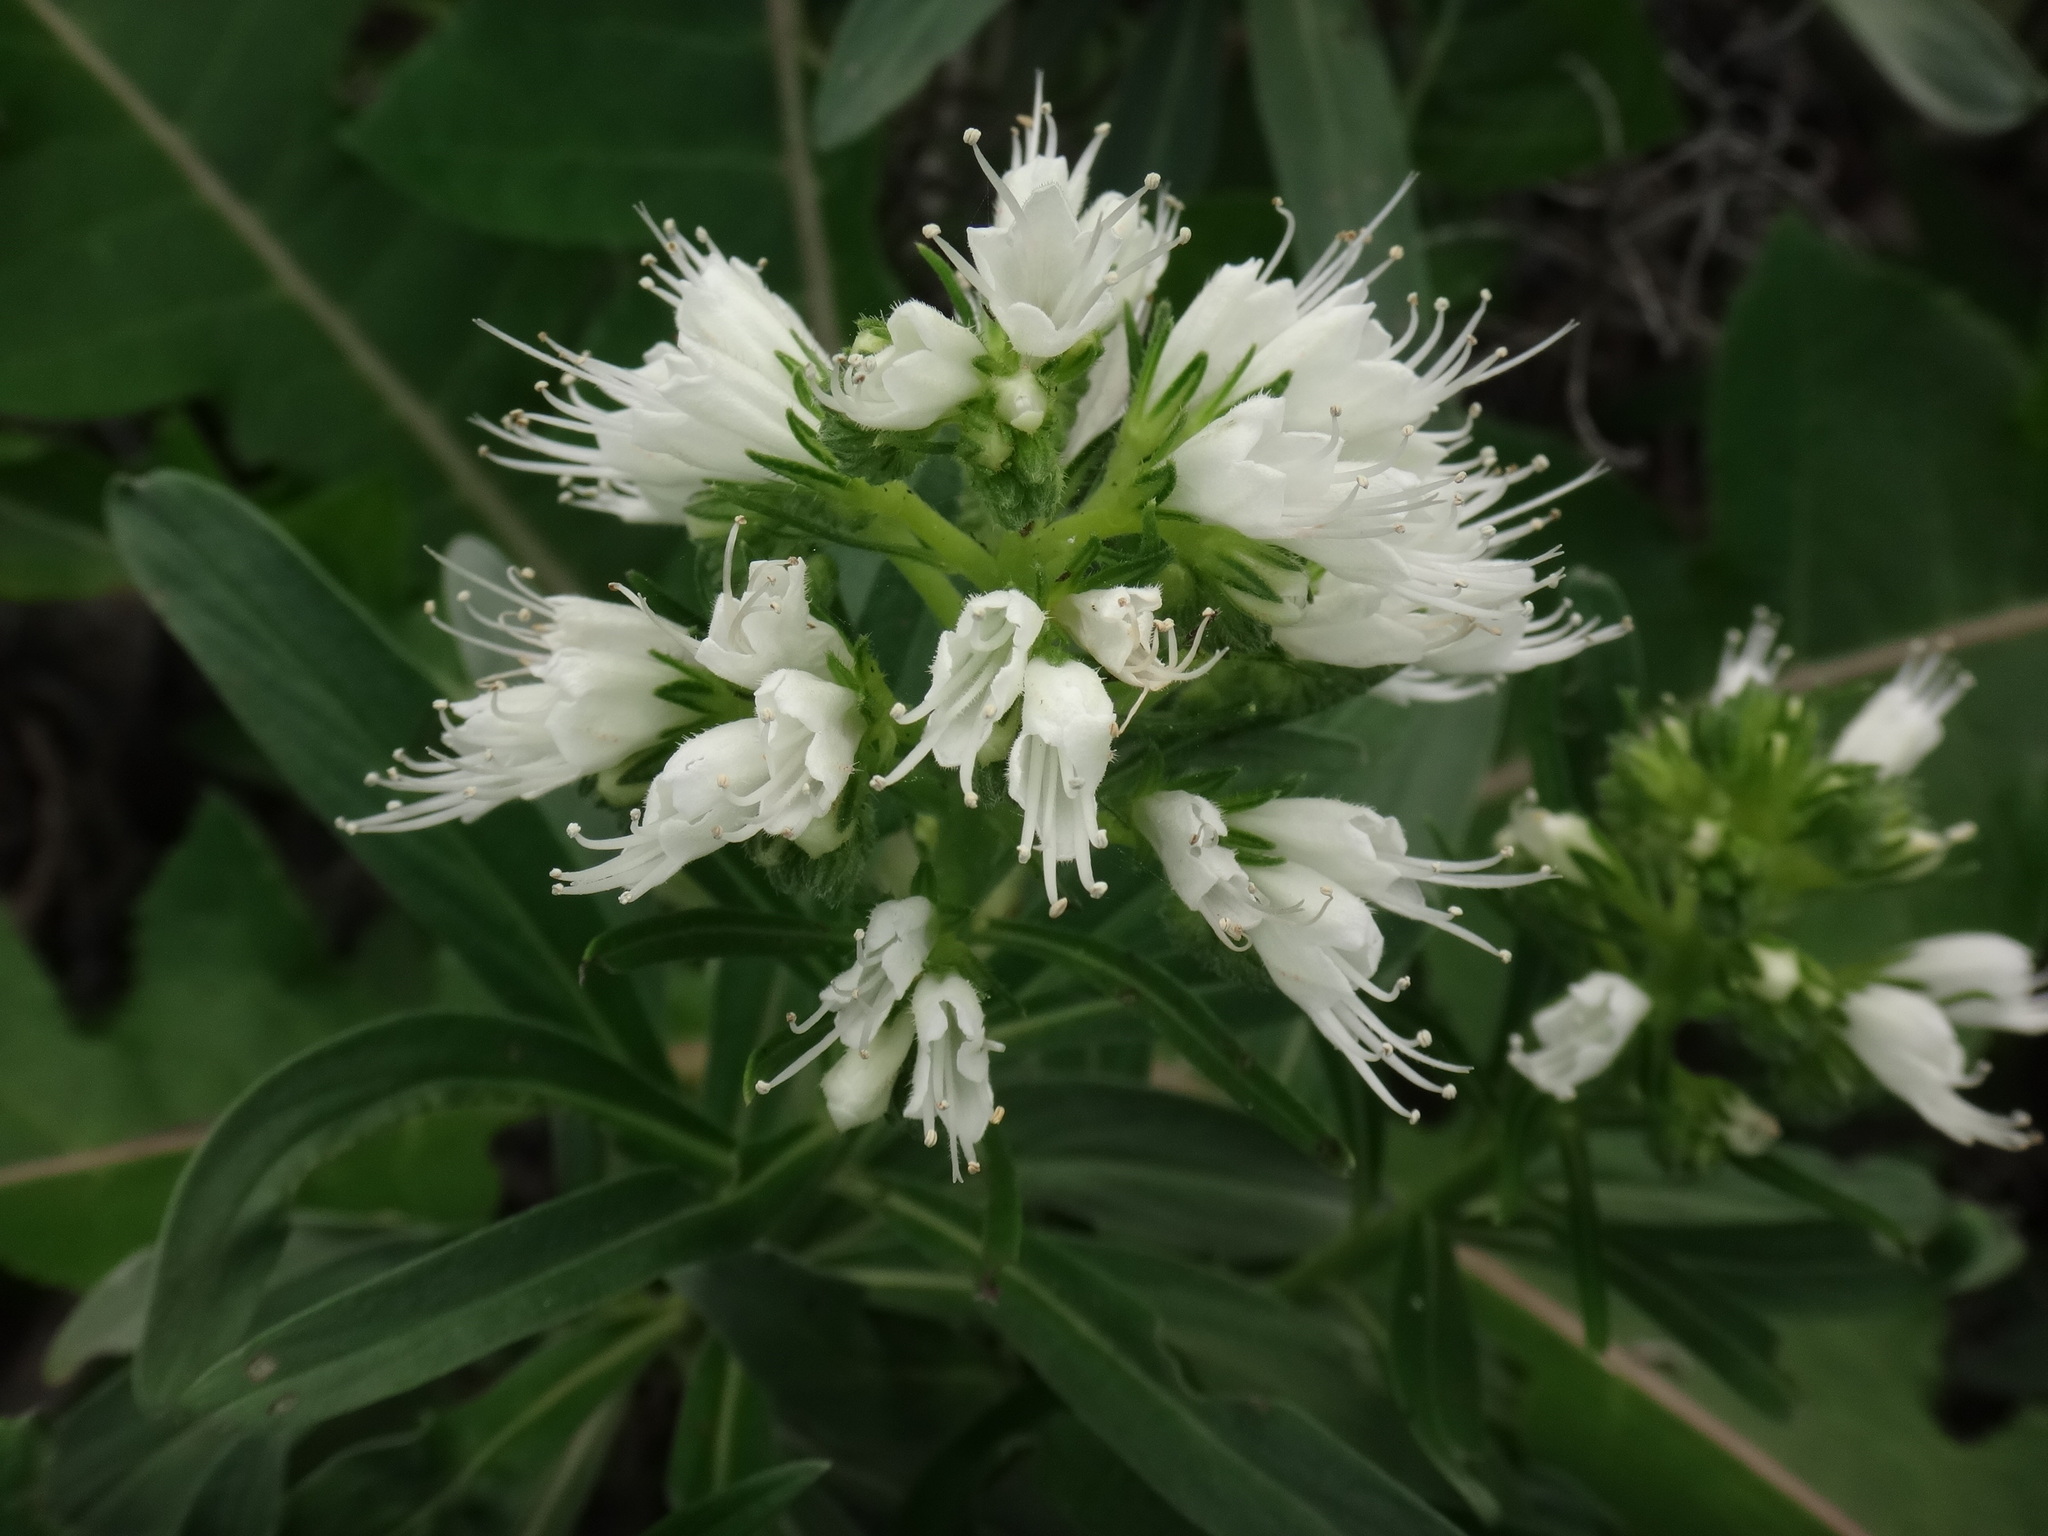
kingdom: Plantae
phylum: Tracheophyta
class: Magnoliopsida
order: Boraginales
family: Boraginaceae
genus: Echium
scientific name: Echium giganteum
